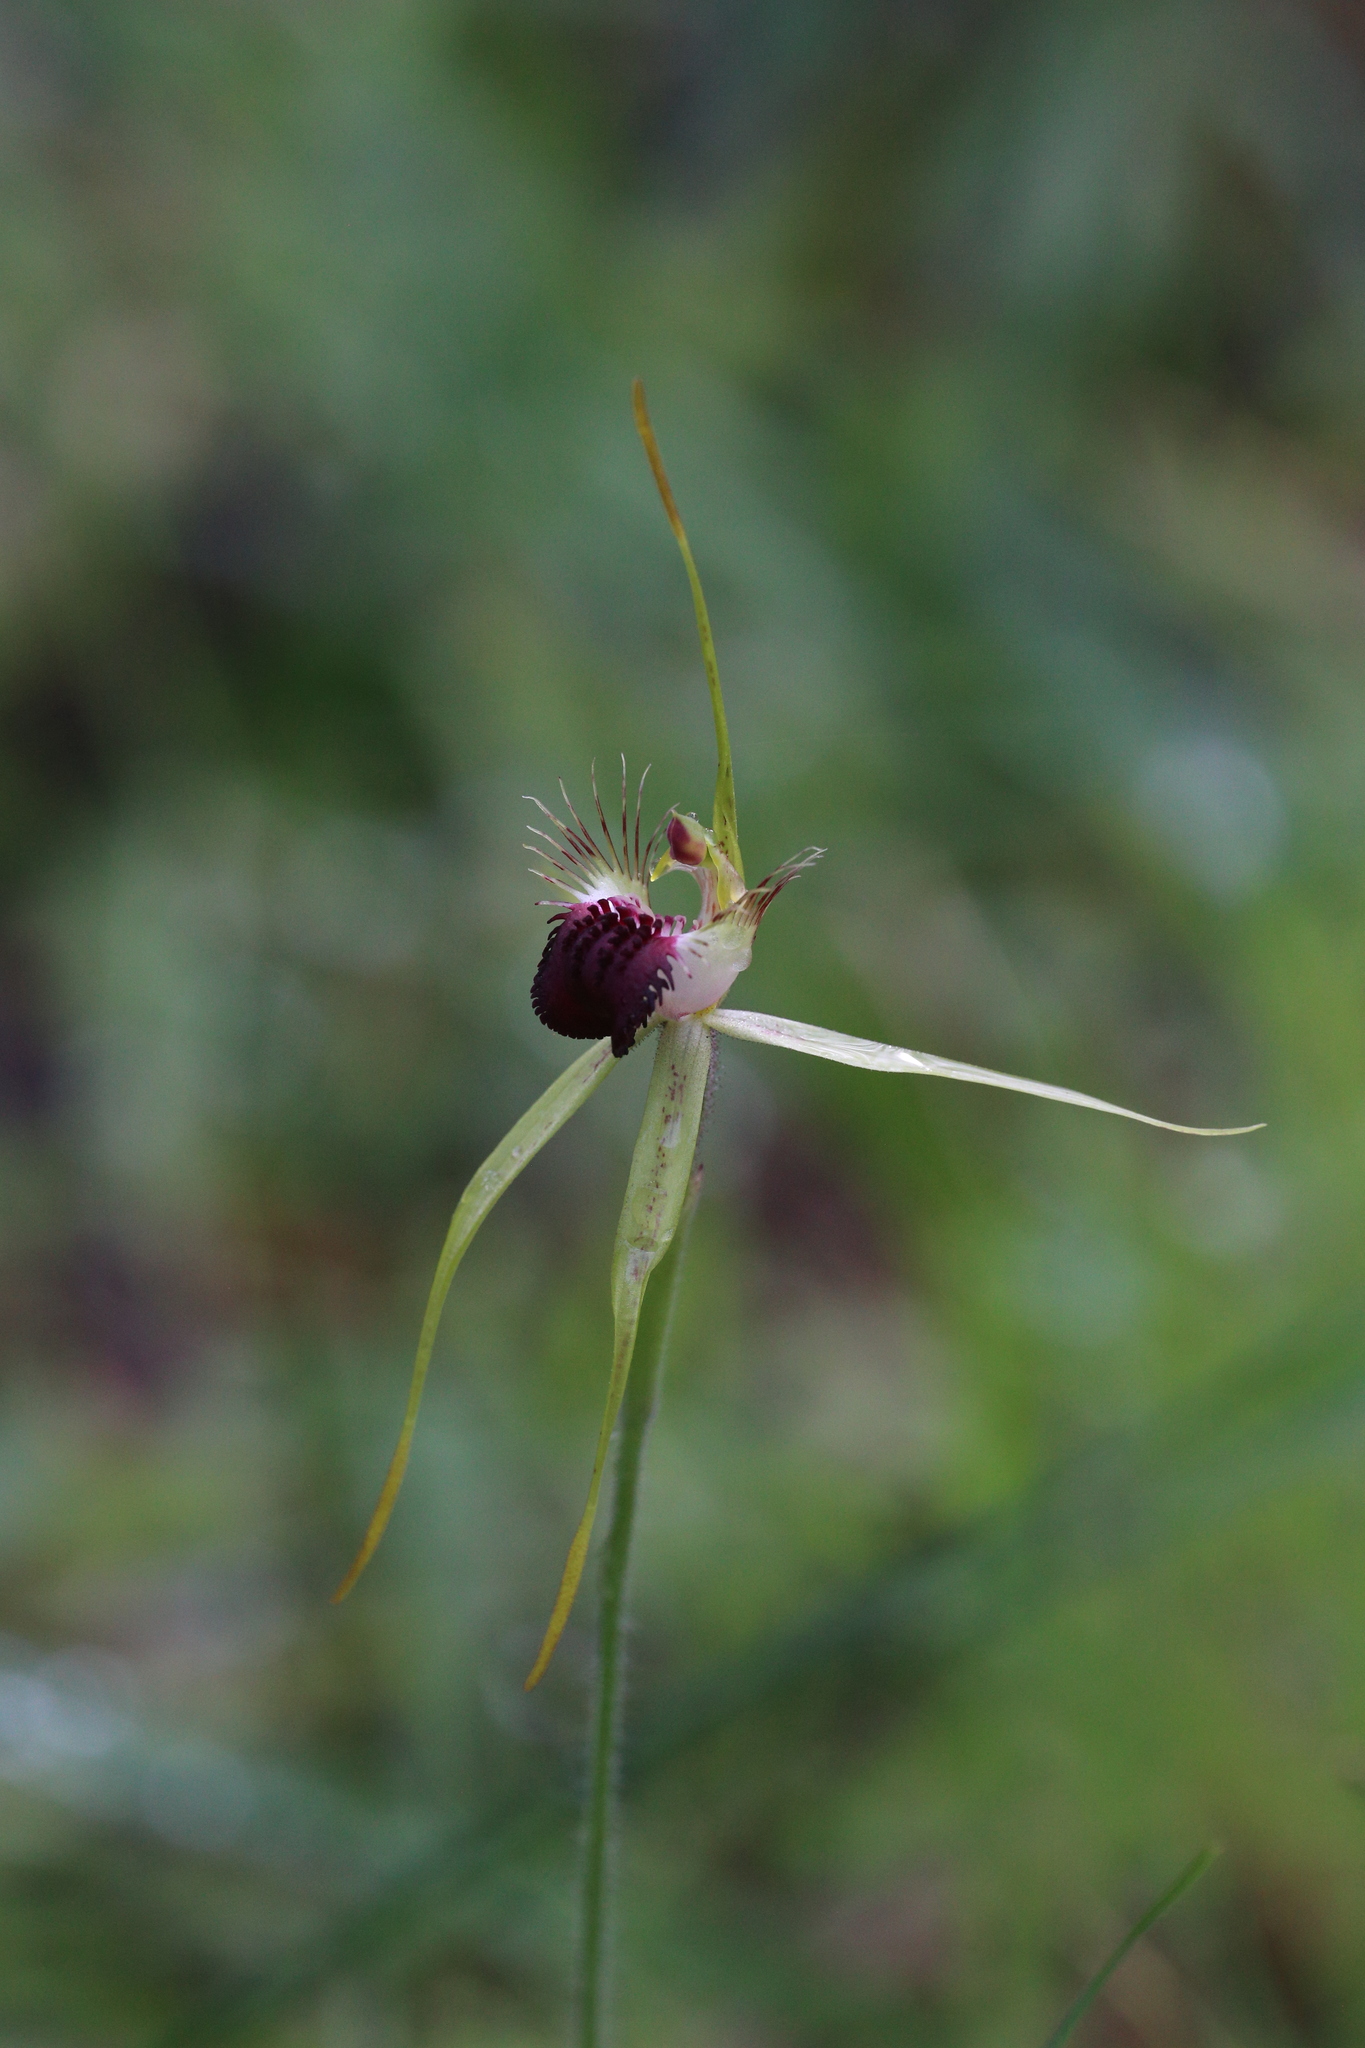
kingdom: Plantae
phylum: Tracheophyta
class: Liliopsida
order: Asparagales
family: Orchidaceae
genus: Caladenia
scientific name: Caladenia thinicola
